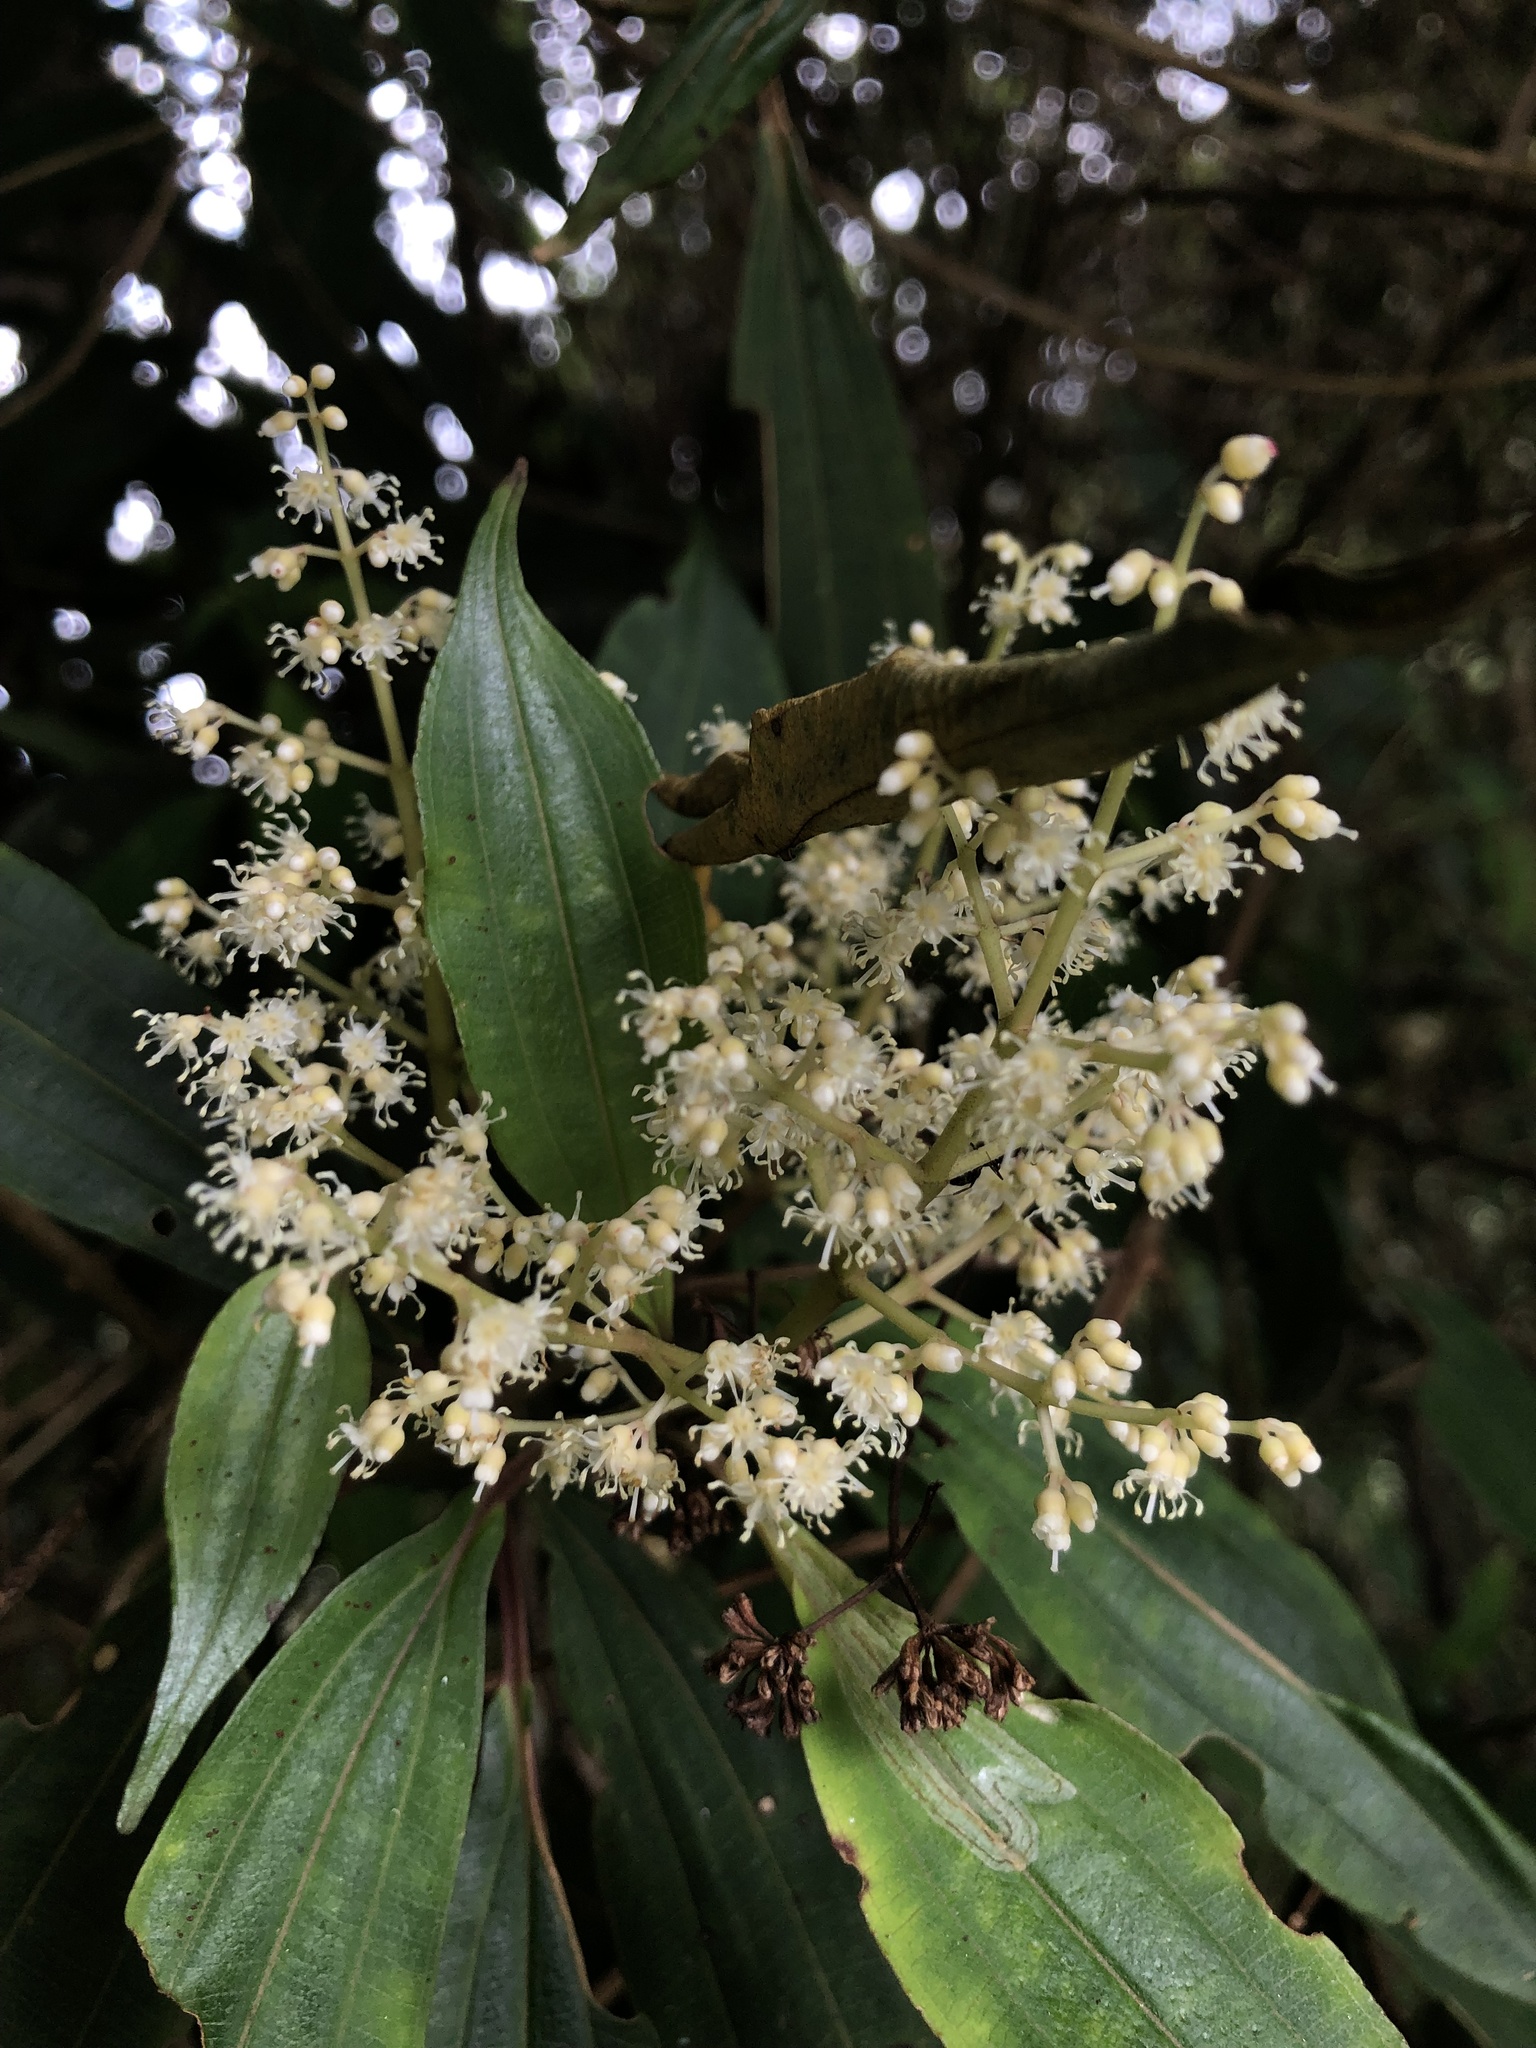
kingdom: Plantae
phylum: Tracheophyta
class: Magnoliopsida
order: Myrtales
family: Melastomataceae
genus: Miconia
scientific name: Miconia theizans
